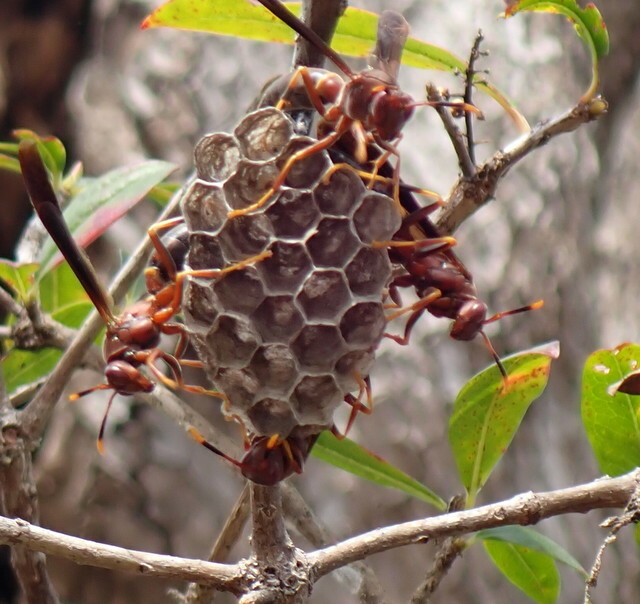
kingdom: Animalia
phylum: Arthropoda
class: Insecta
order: Hymenoptera
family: Eumenidae
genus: Polistes
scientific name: Polistes annularis
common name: Ringed paper wasp
